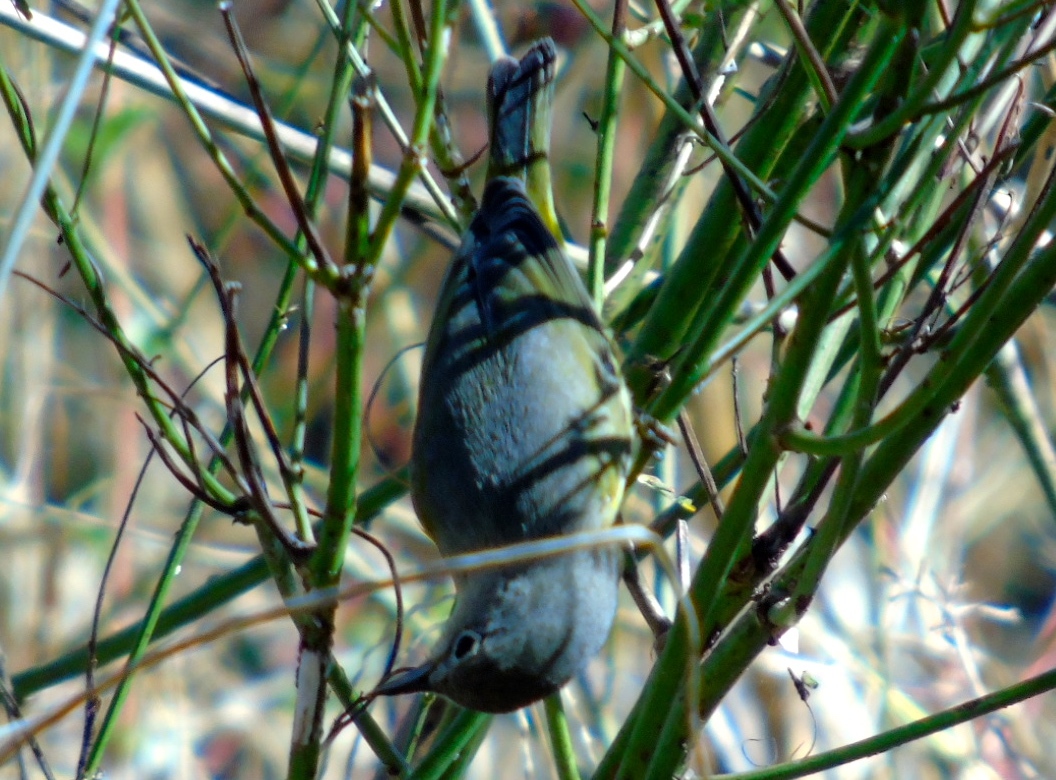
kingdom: Animalia
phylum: Chordata
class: Aves
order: Passeriformes
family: Parulidae
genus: Leiothlypis
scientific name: Leiothlypis ruficapilla
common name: Nashville warbler
